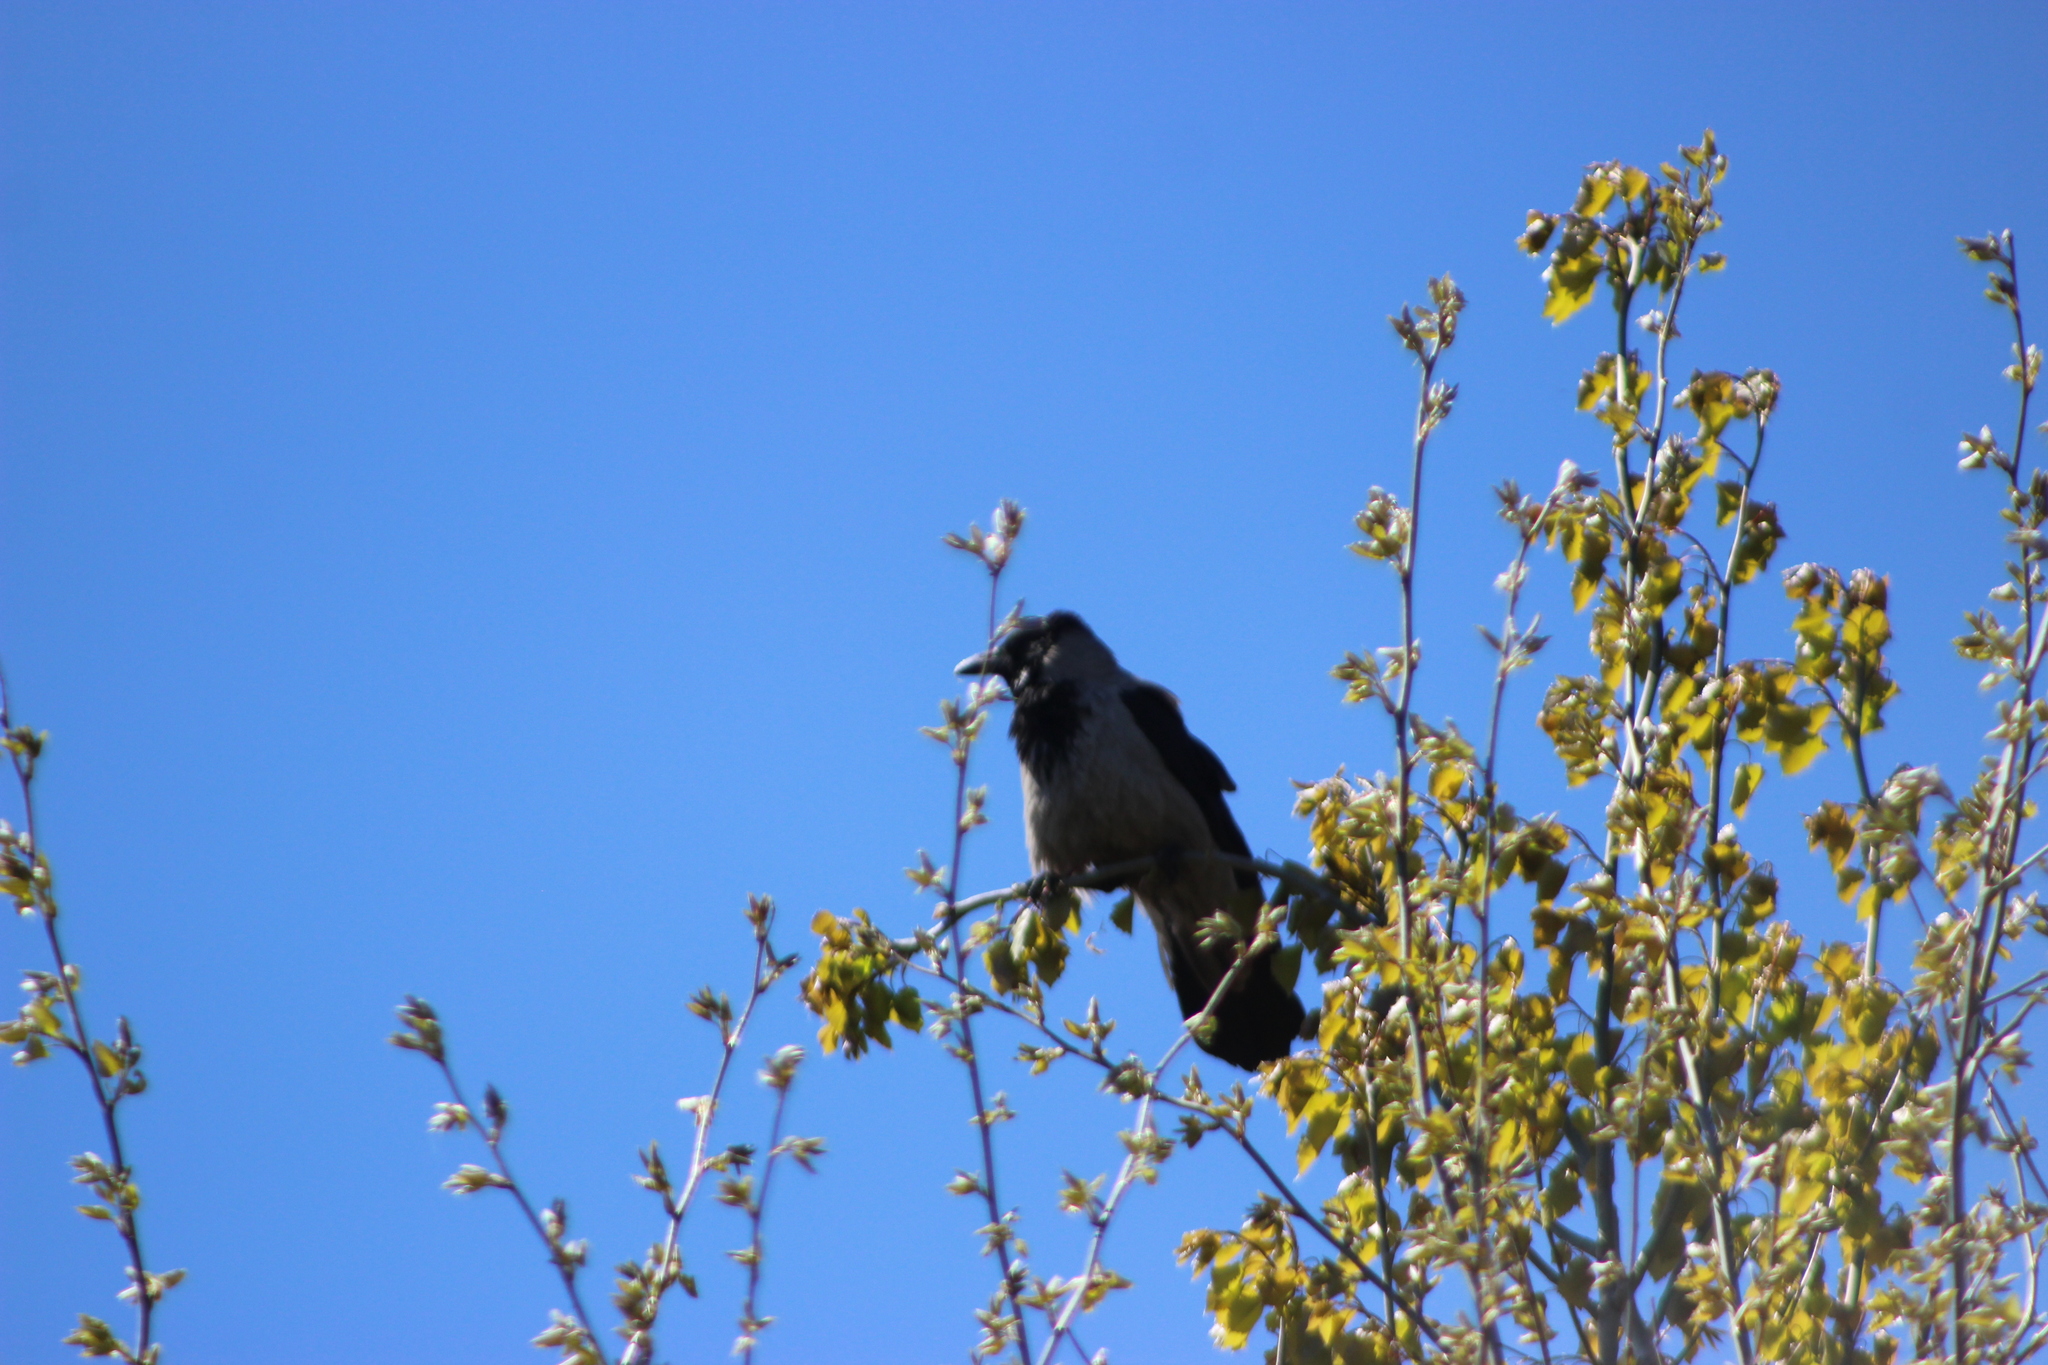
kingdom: Animalia
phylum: Chordata
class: Aves
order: Passeriformes
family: Corvidae
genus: Corvus
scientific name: Corvus cornix
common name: Hooded crow
